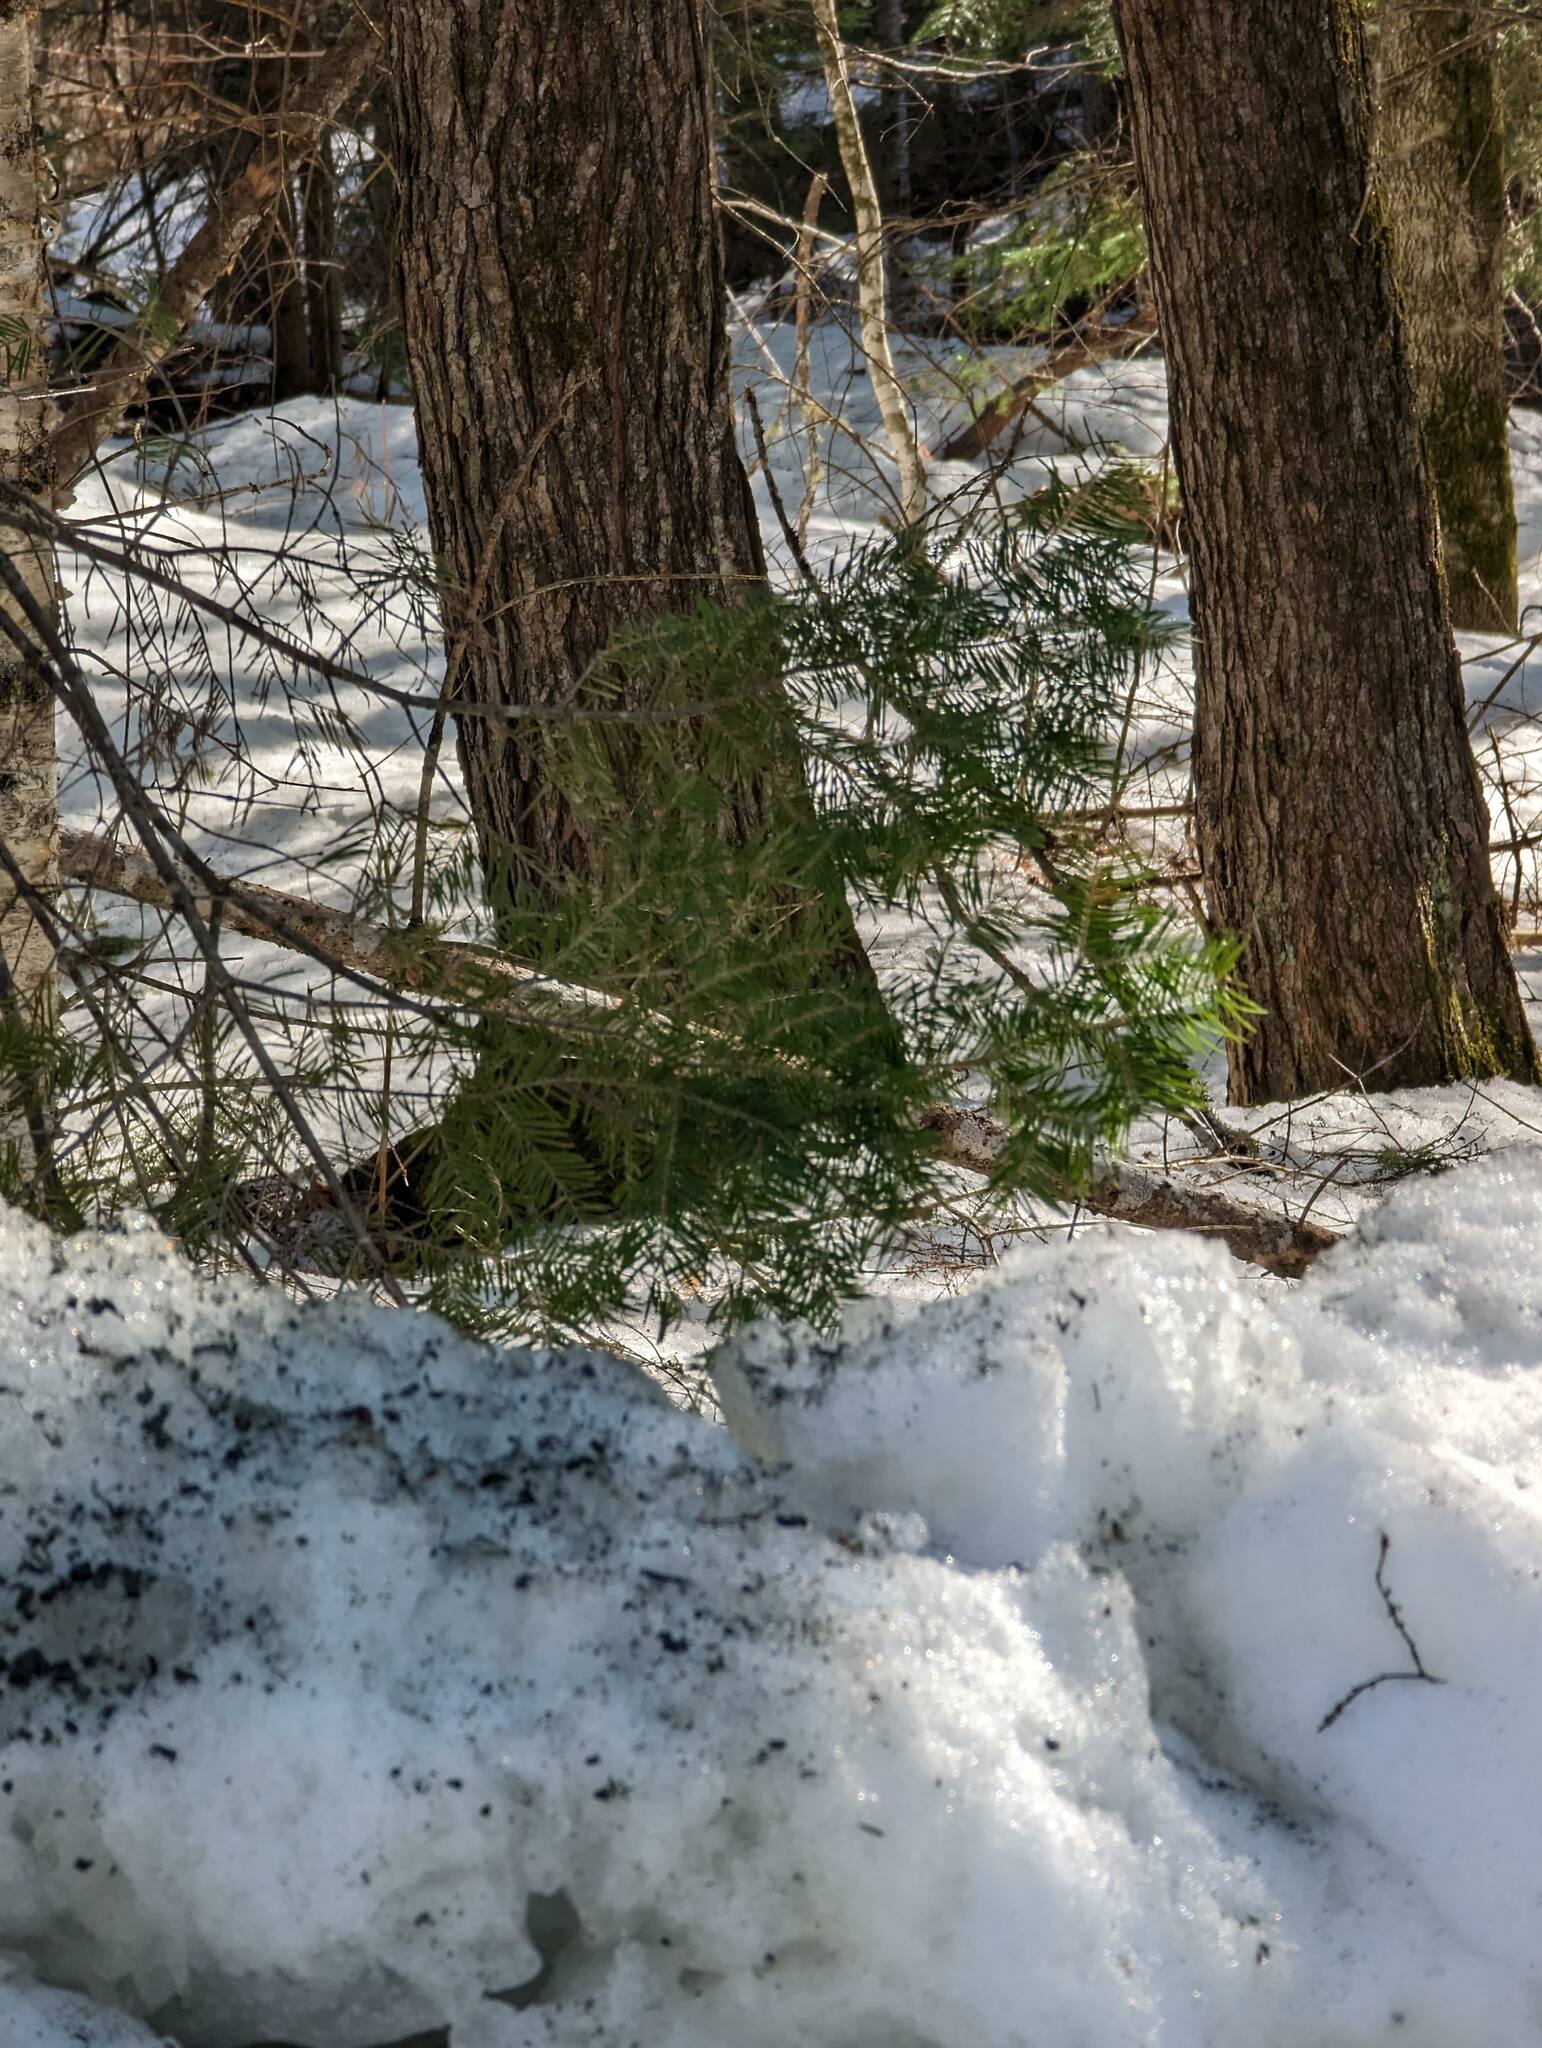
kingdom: Plantae
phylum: Tracheophyta
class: Pinopsida
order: Pinales
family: Pinaceae
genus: Abies
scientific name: Abies balsamea
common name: Balsam fir
